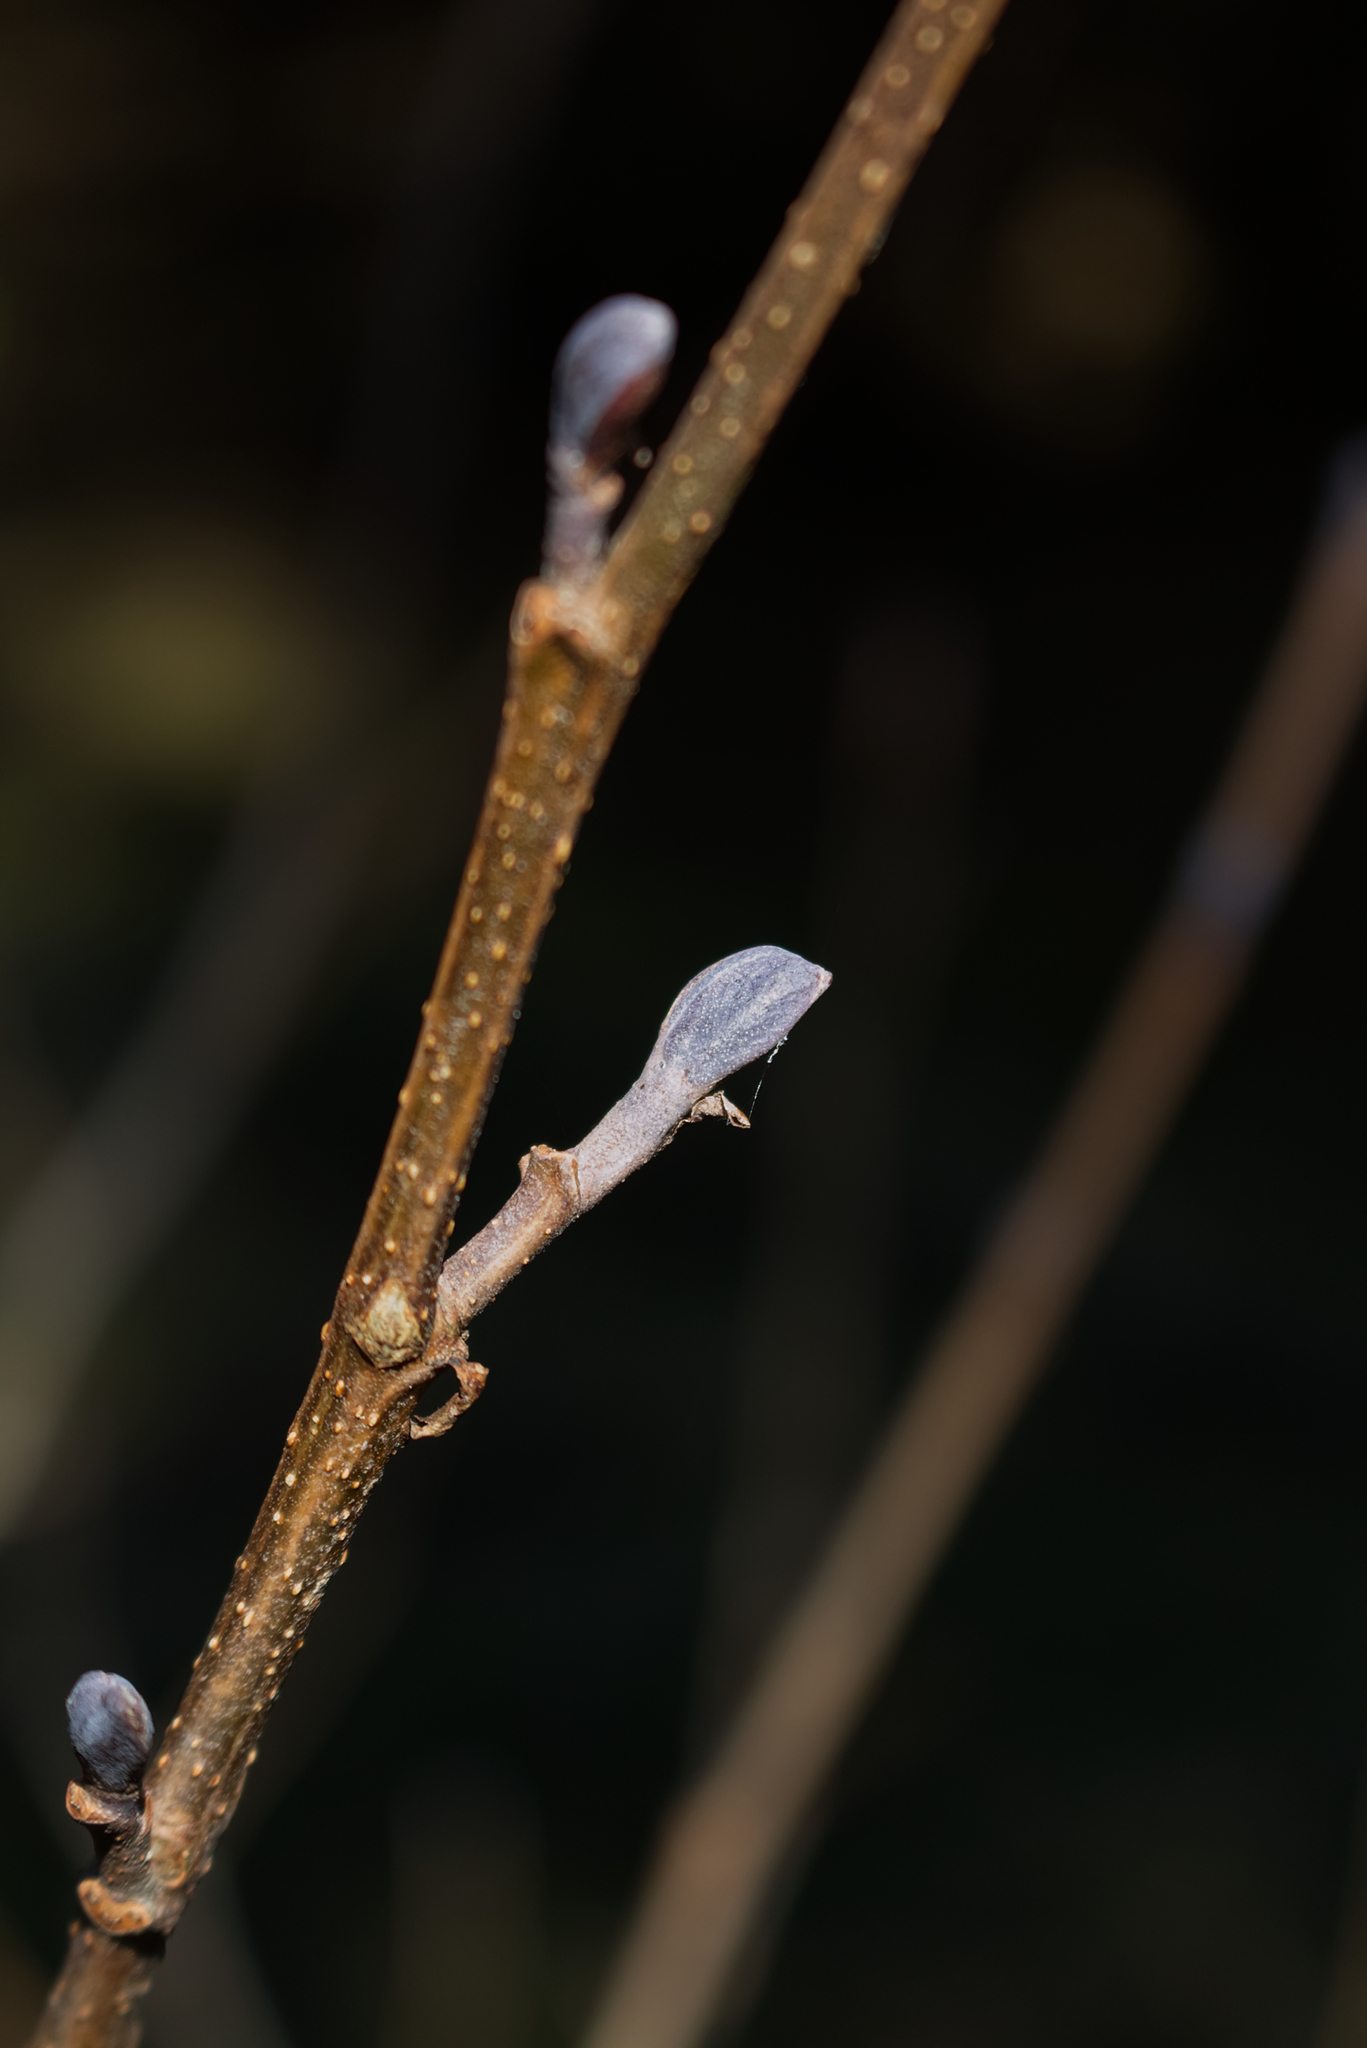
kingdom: Plantae
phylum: Tracheophyta
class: Magnoliopsida
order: Fagales
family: Betulaceae
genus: Alnus
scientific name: Alnus glutinosa
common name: Black alder
